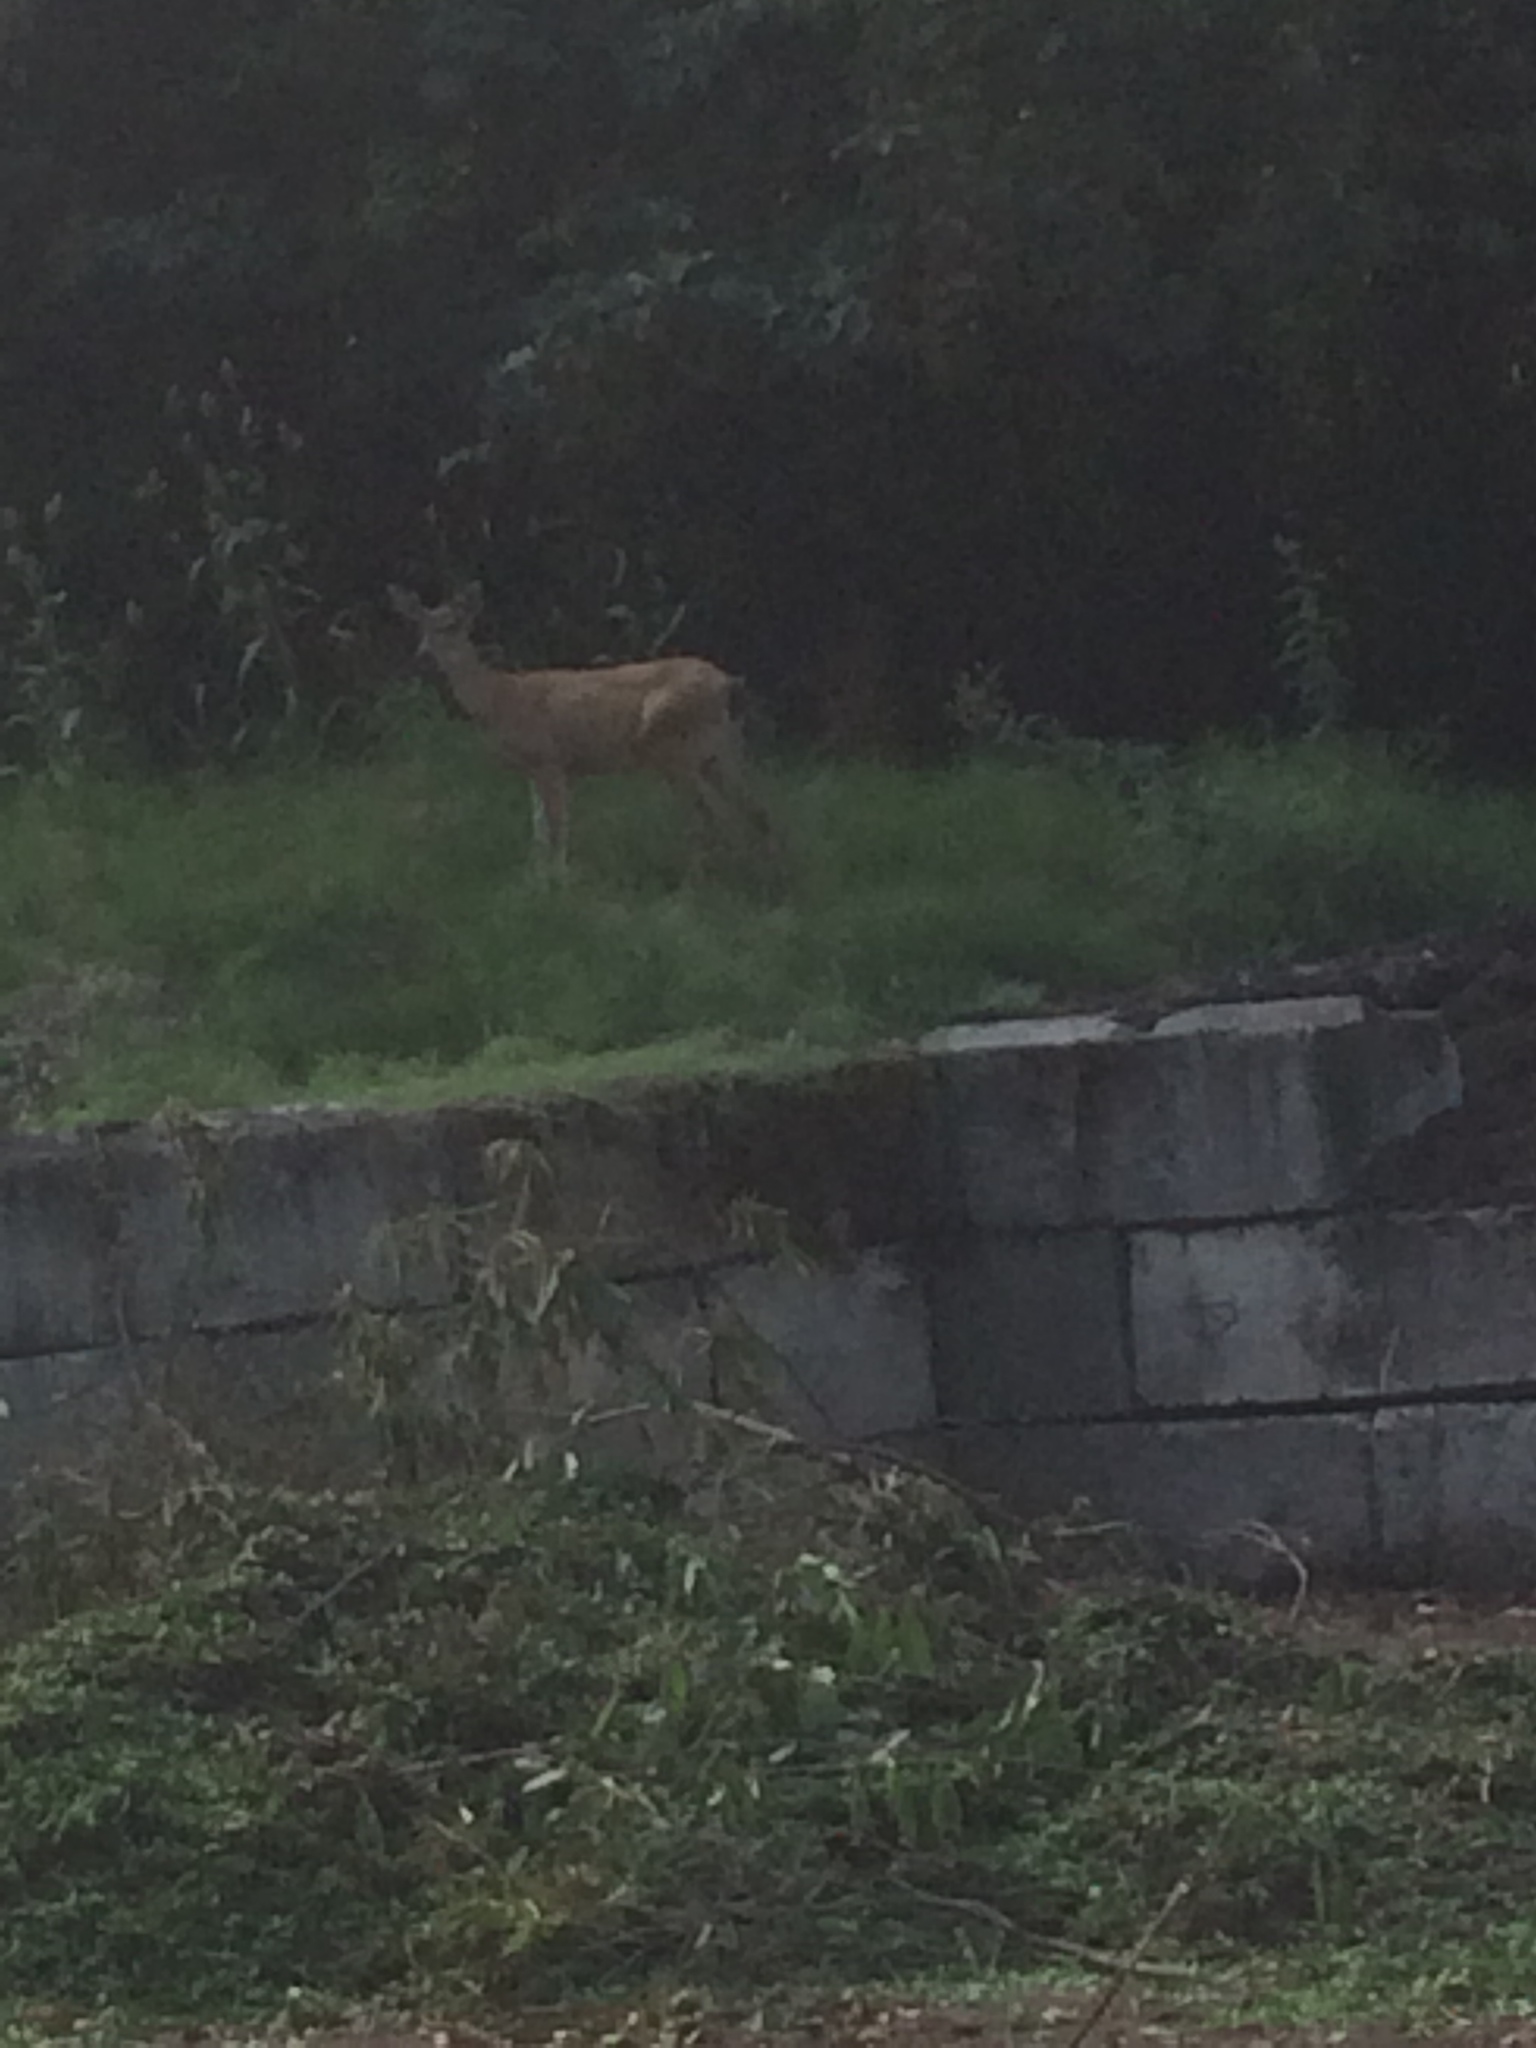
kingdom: Animalia
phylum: Chordata
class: Mammalia
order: Artiodactyla
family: Cervidae
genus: Odocoileus
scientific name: Odocoileus hemionus
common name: Mule deer
